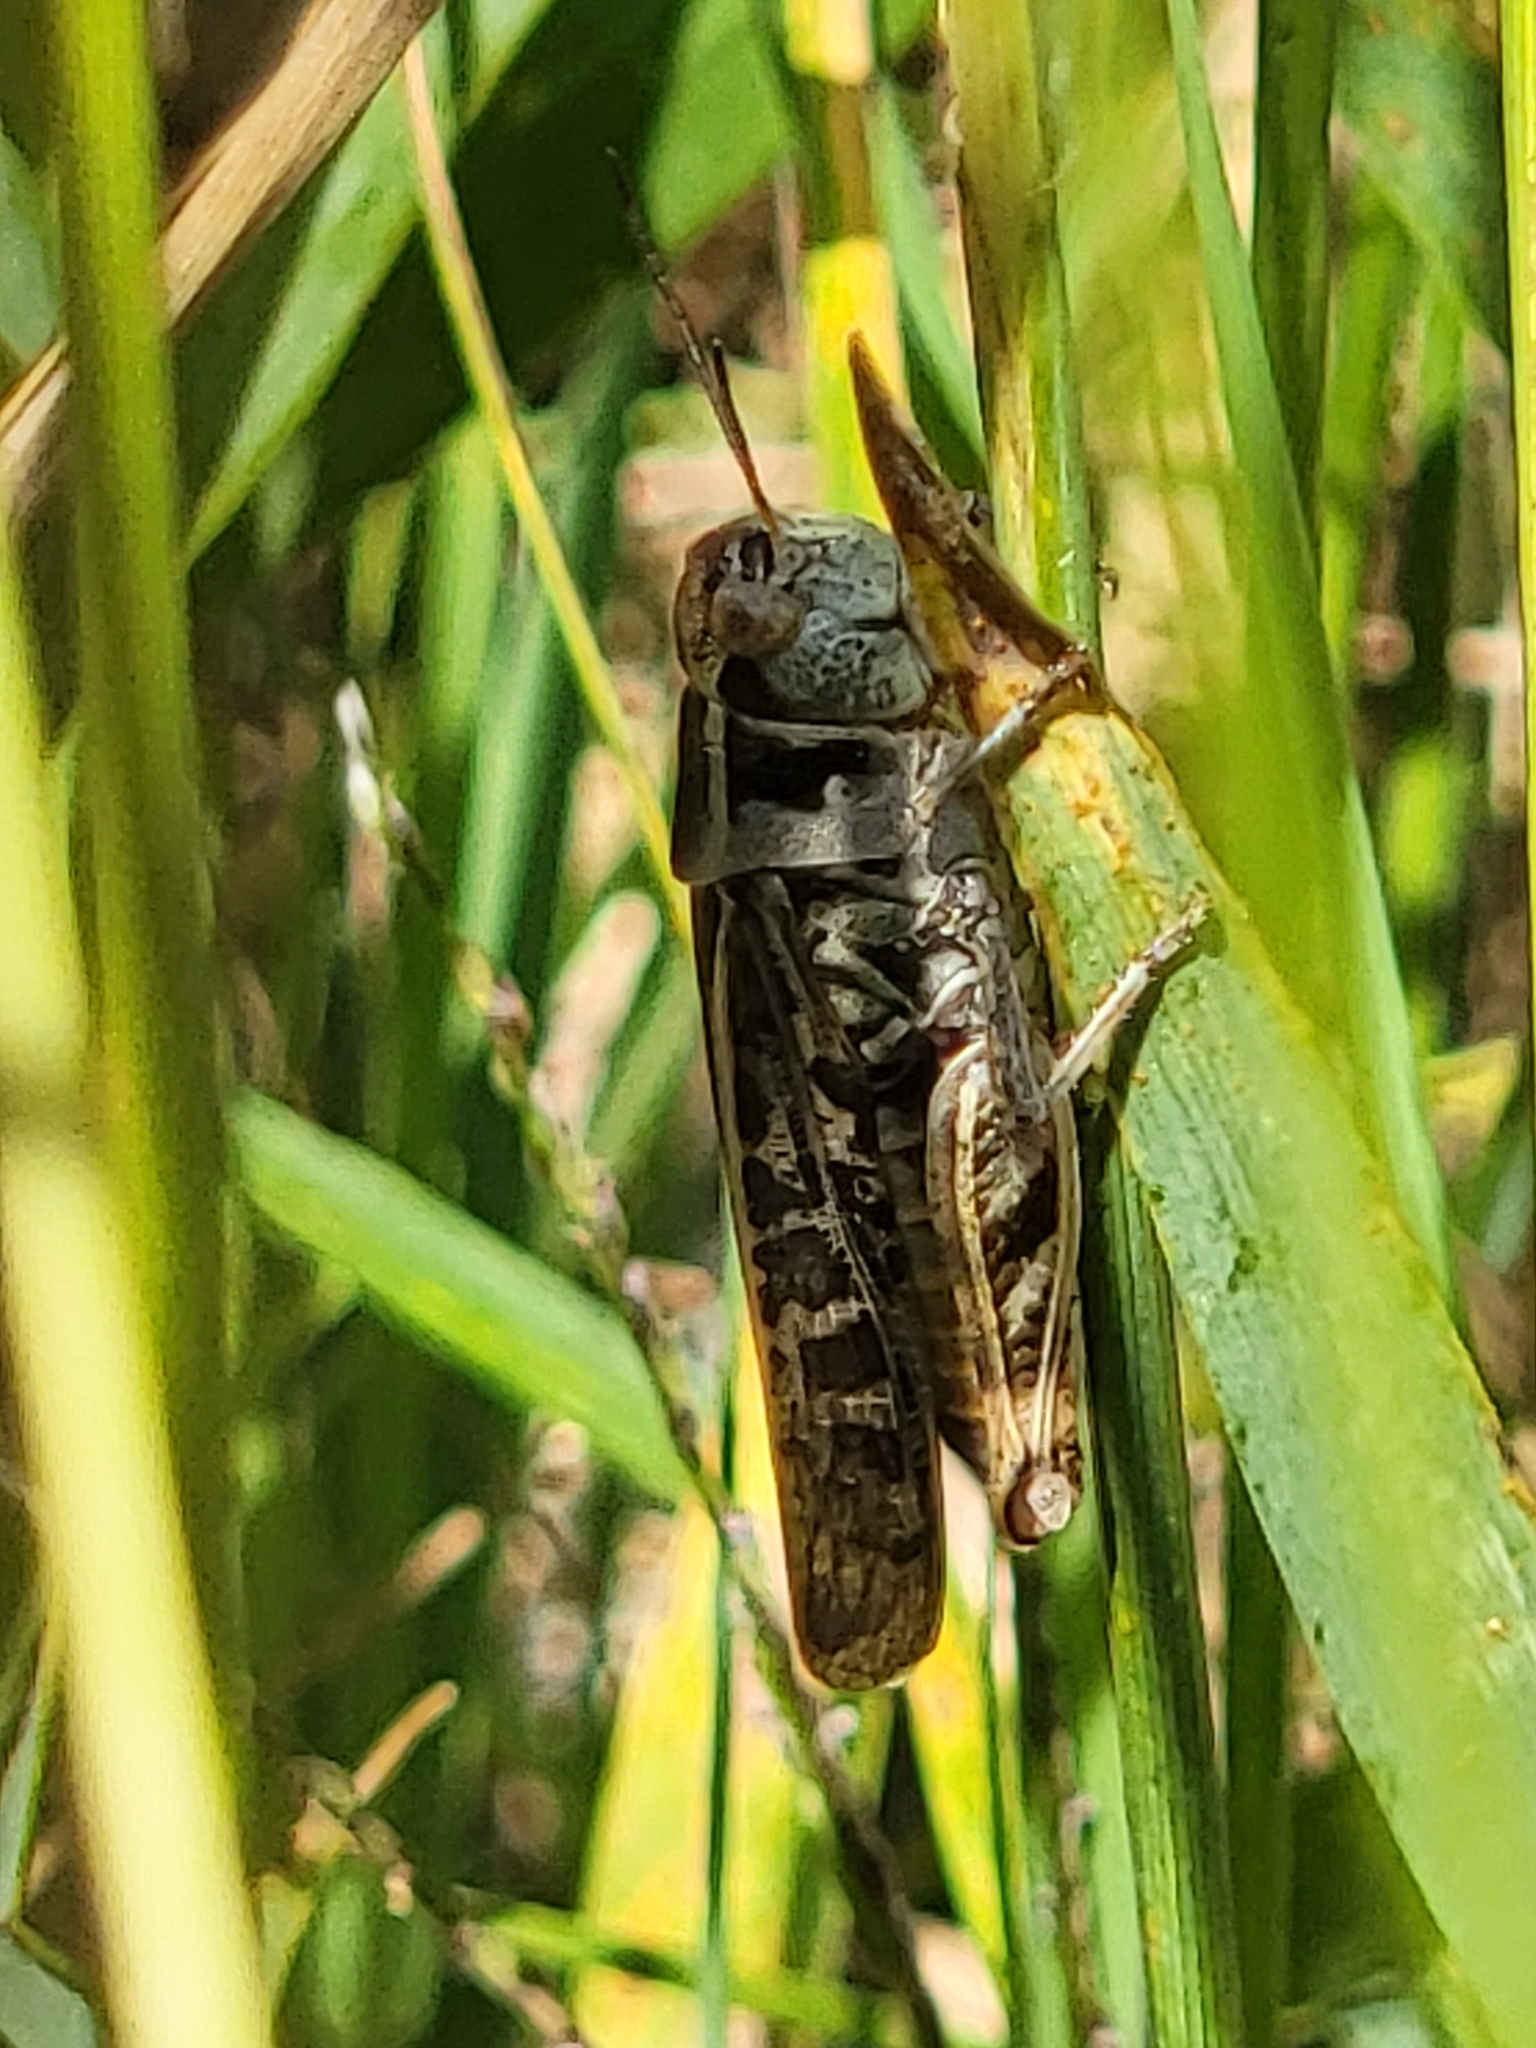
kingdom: Animalia
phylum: Arthropoda
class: Insecta
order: Orthoptera
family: Acrididae
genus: Camnula
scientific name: Camnula pellucida
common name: Clear-winged grasshopper
